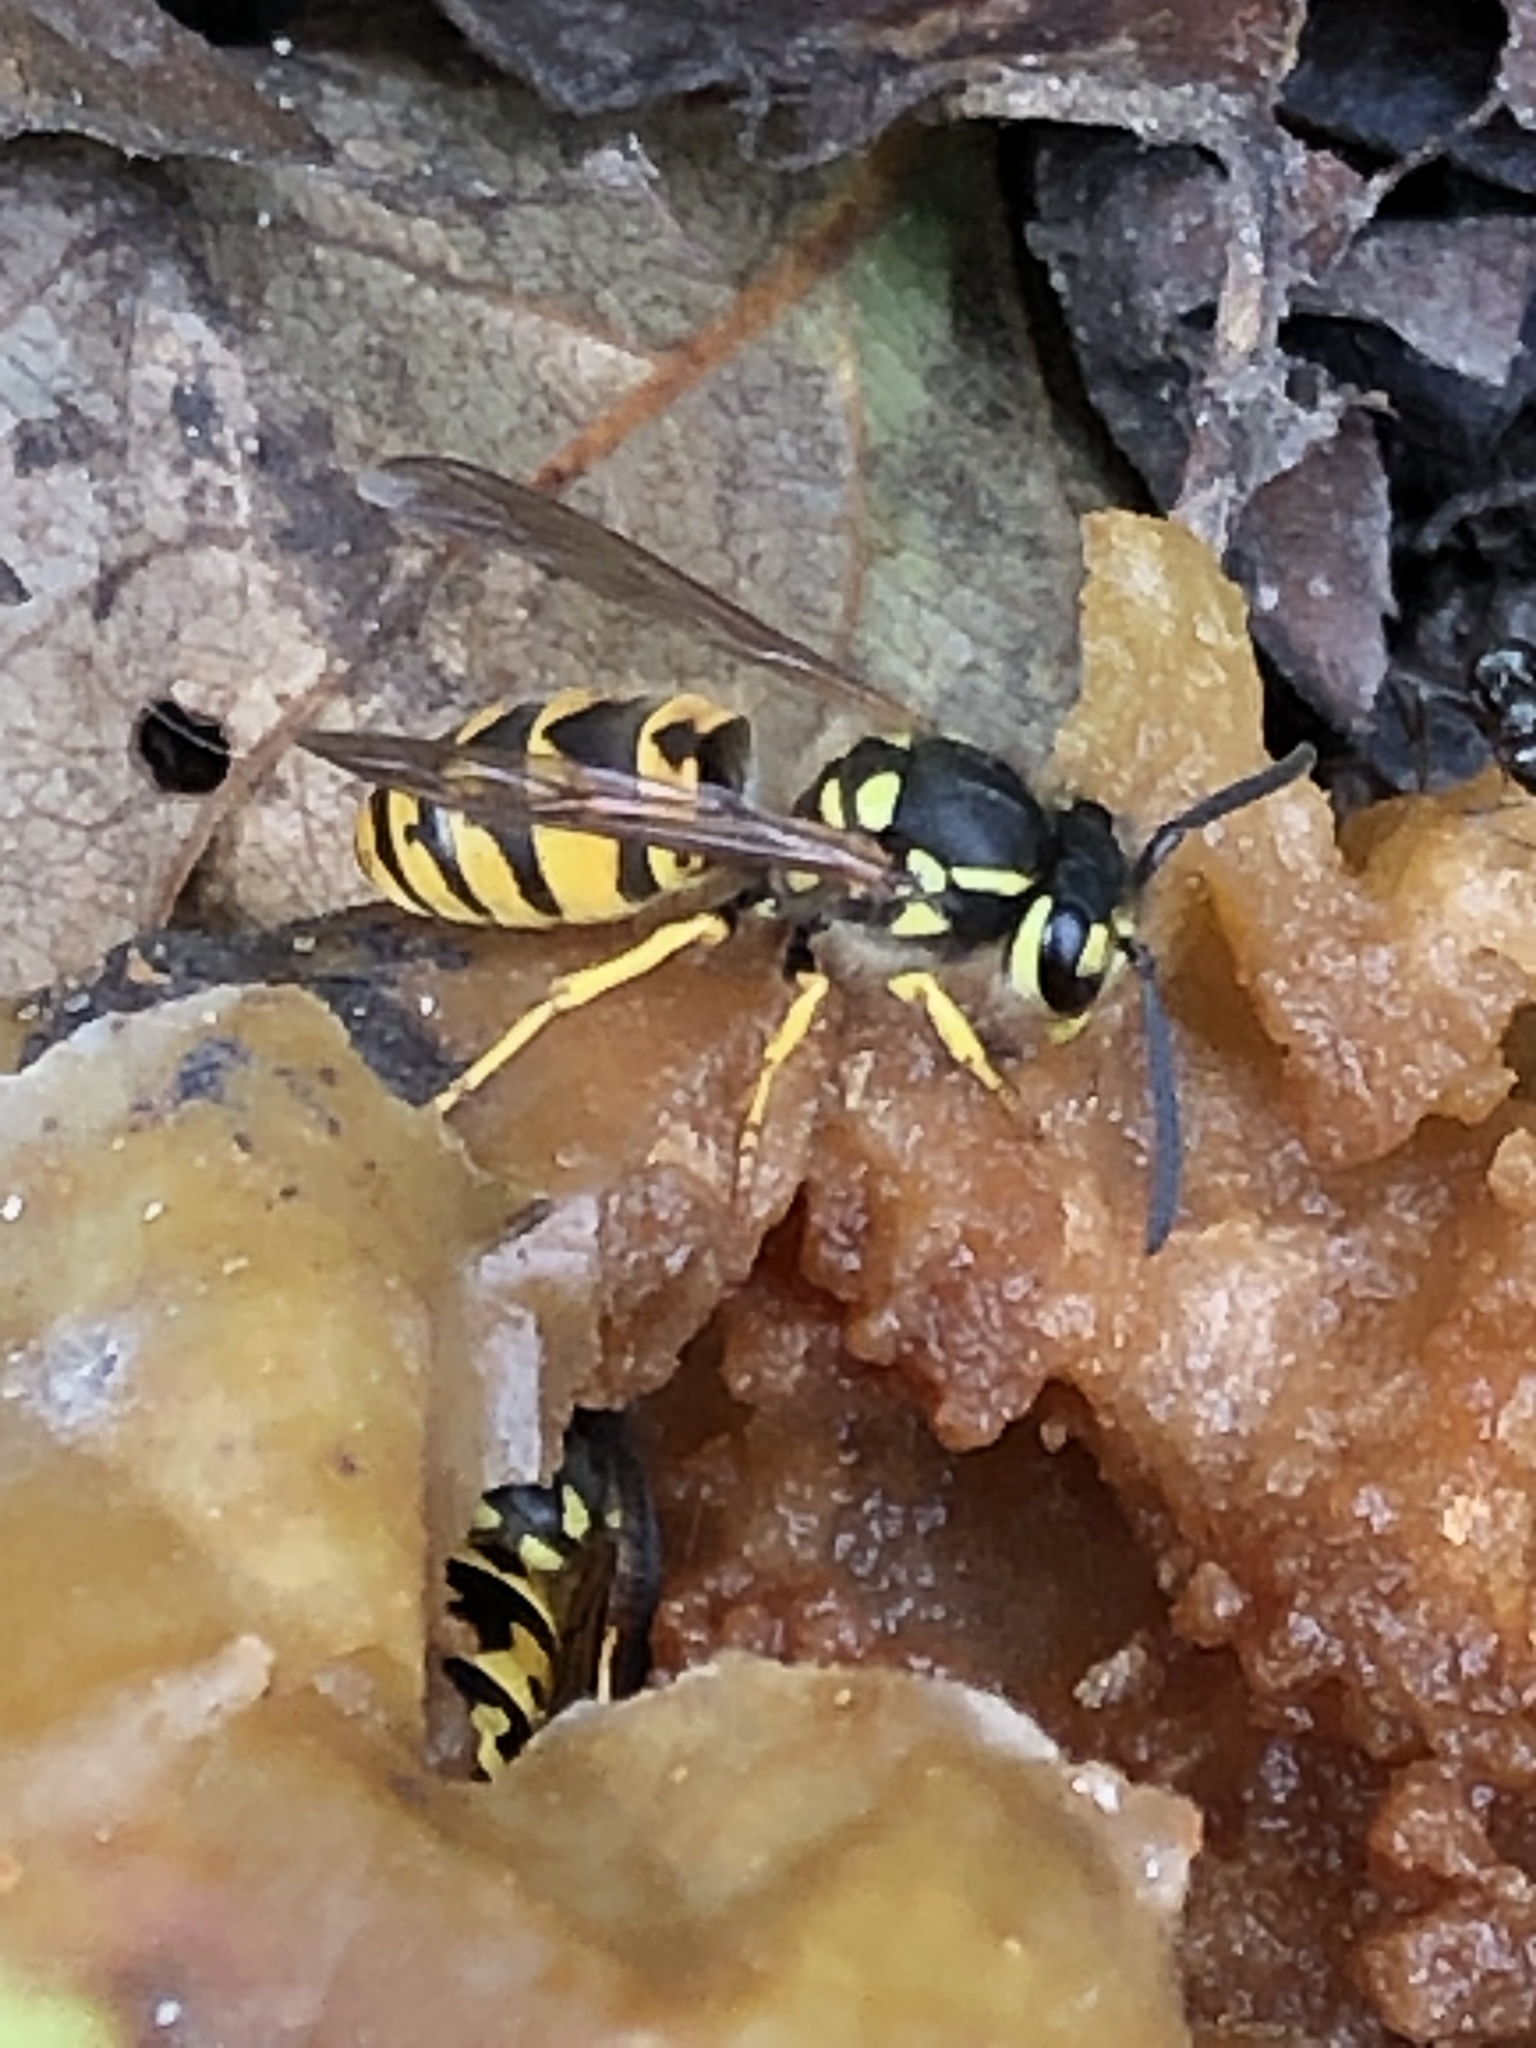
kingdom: Animalia
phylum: Arthropoda
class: Insecta
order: Hymenoptera
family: Vespidae
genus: Vespula
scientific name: Vespula germanica
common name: German wasp
